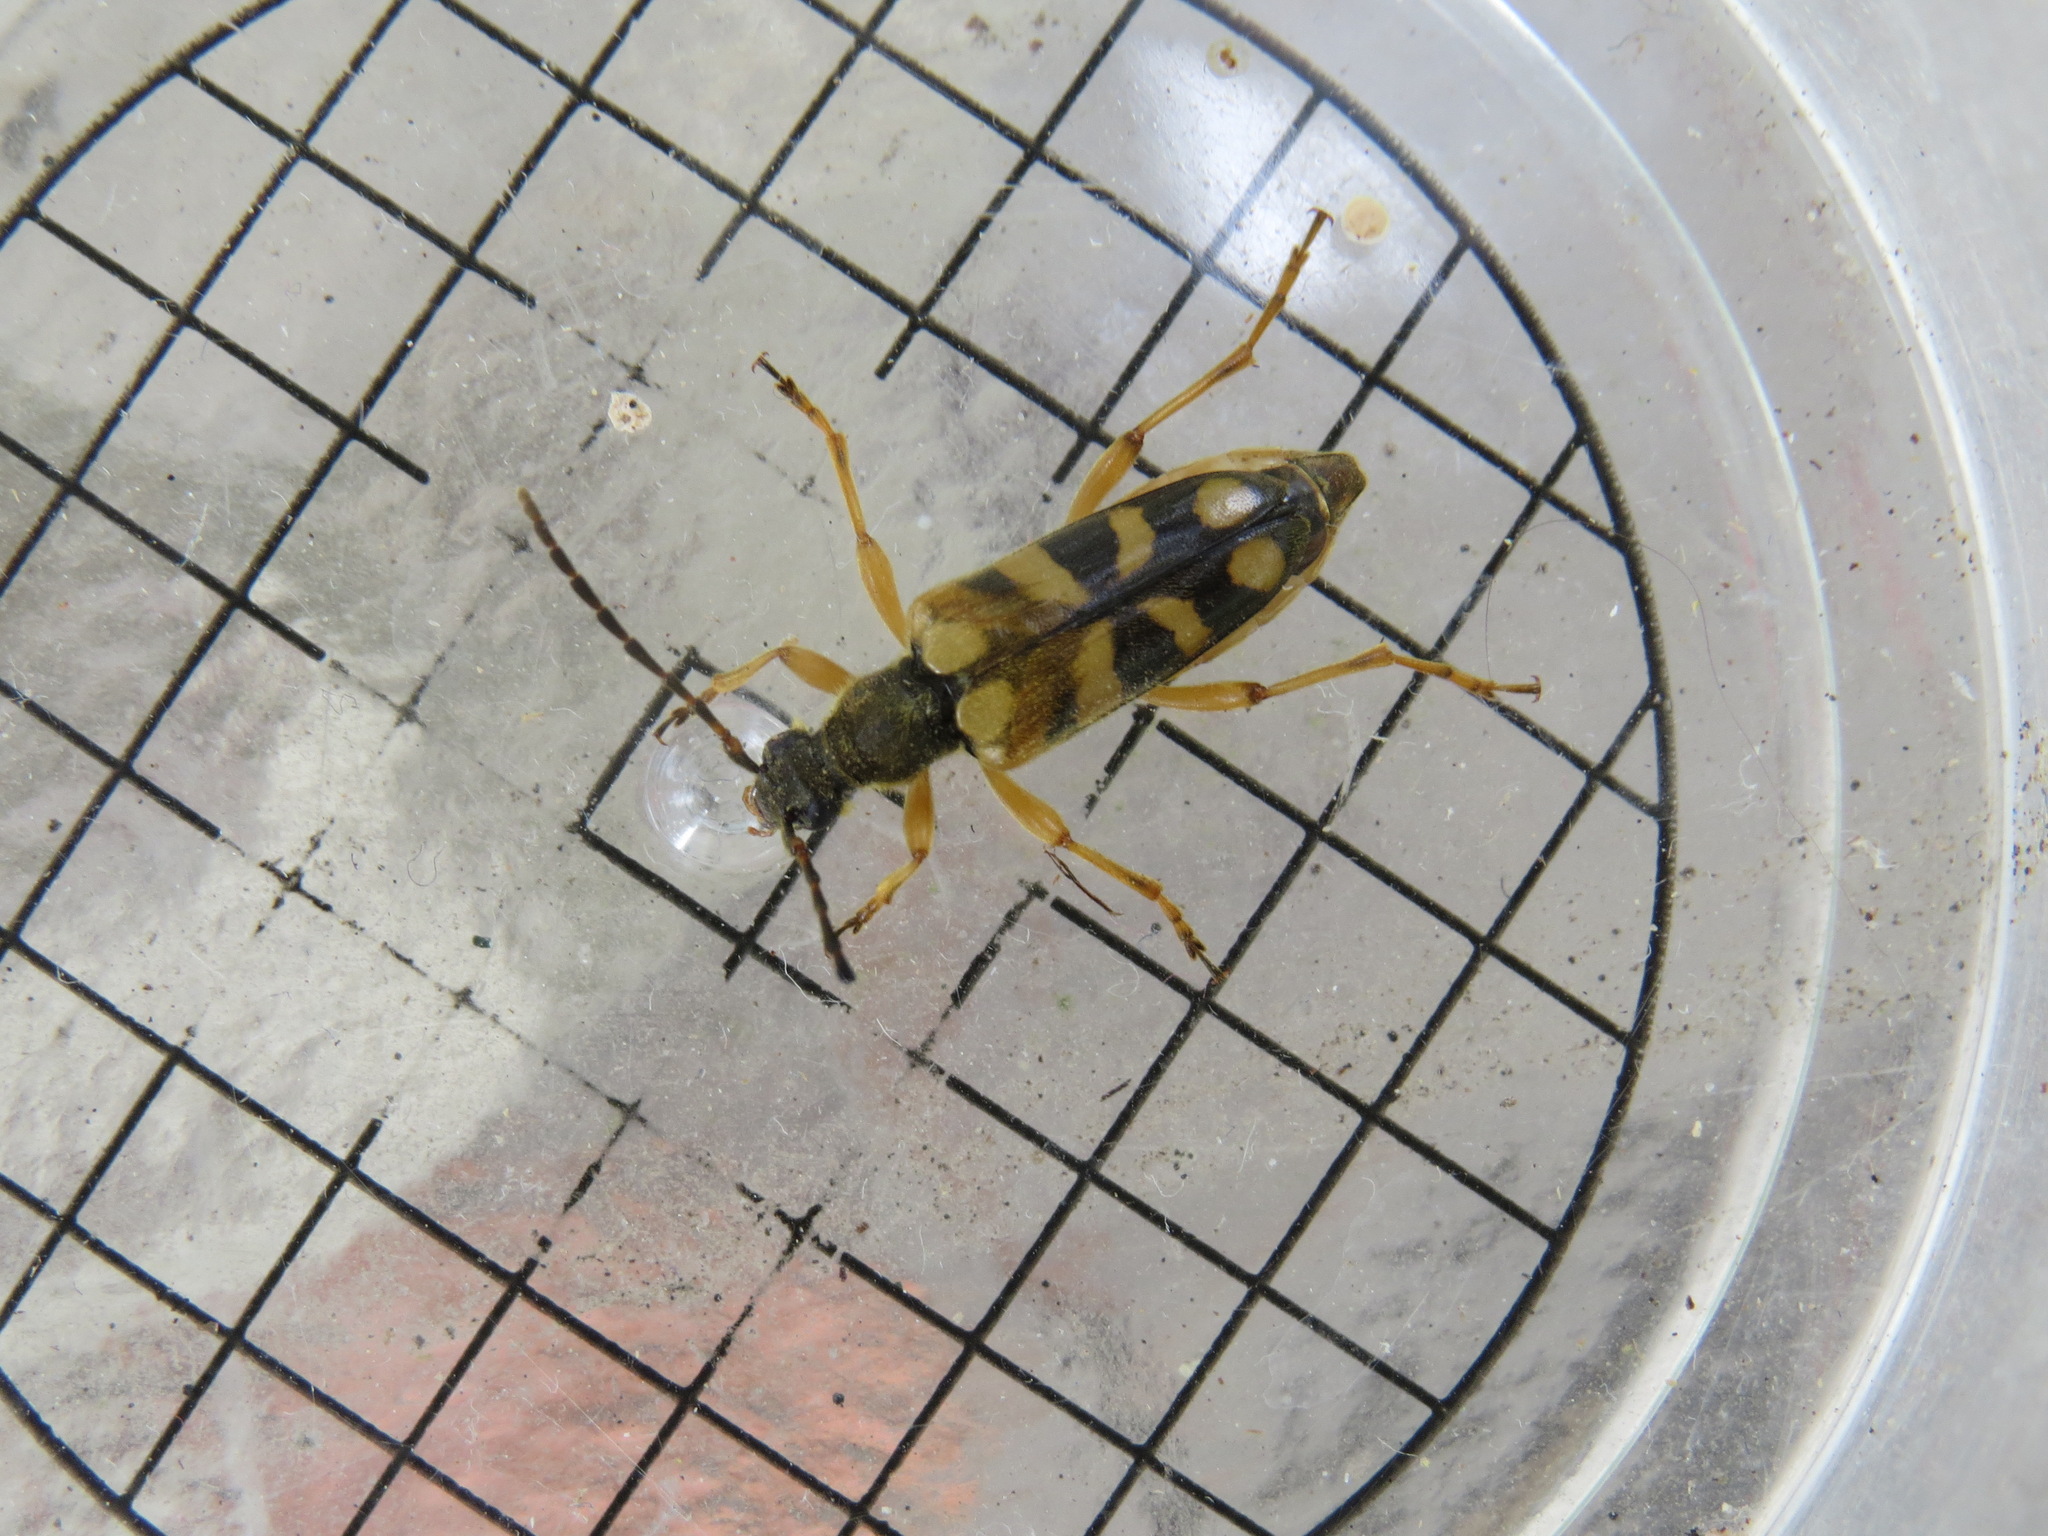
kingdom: Animalia
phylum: Arthropoda
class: Insecta
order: Coleoptera
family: Cerambycidae
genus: Xestoleptura
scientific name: Xestoleptura crassipes
